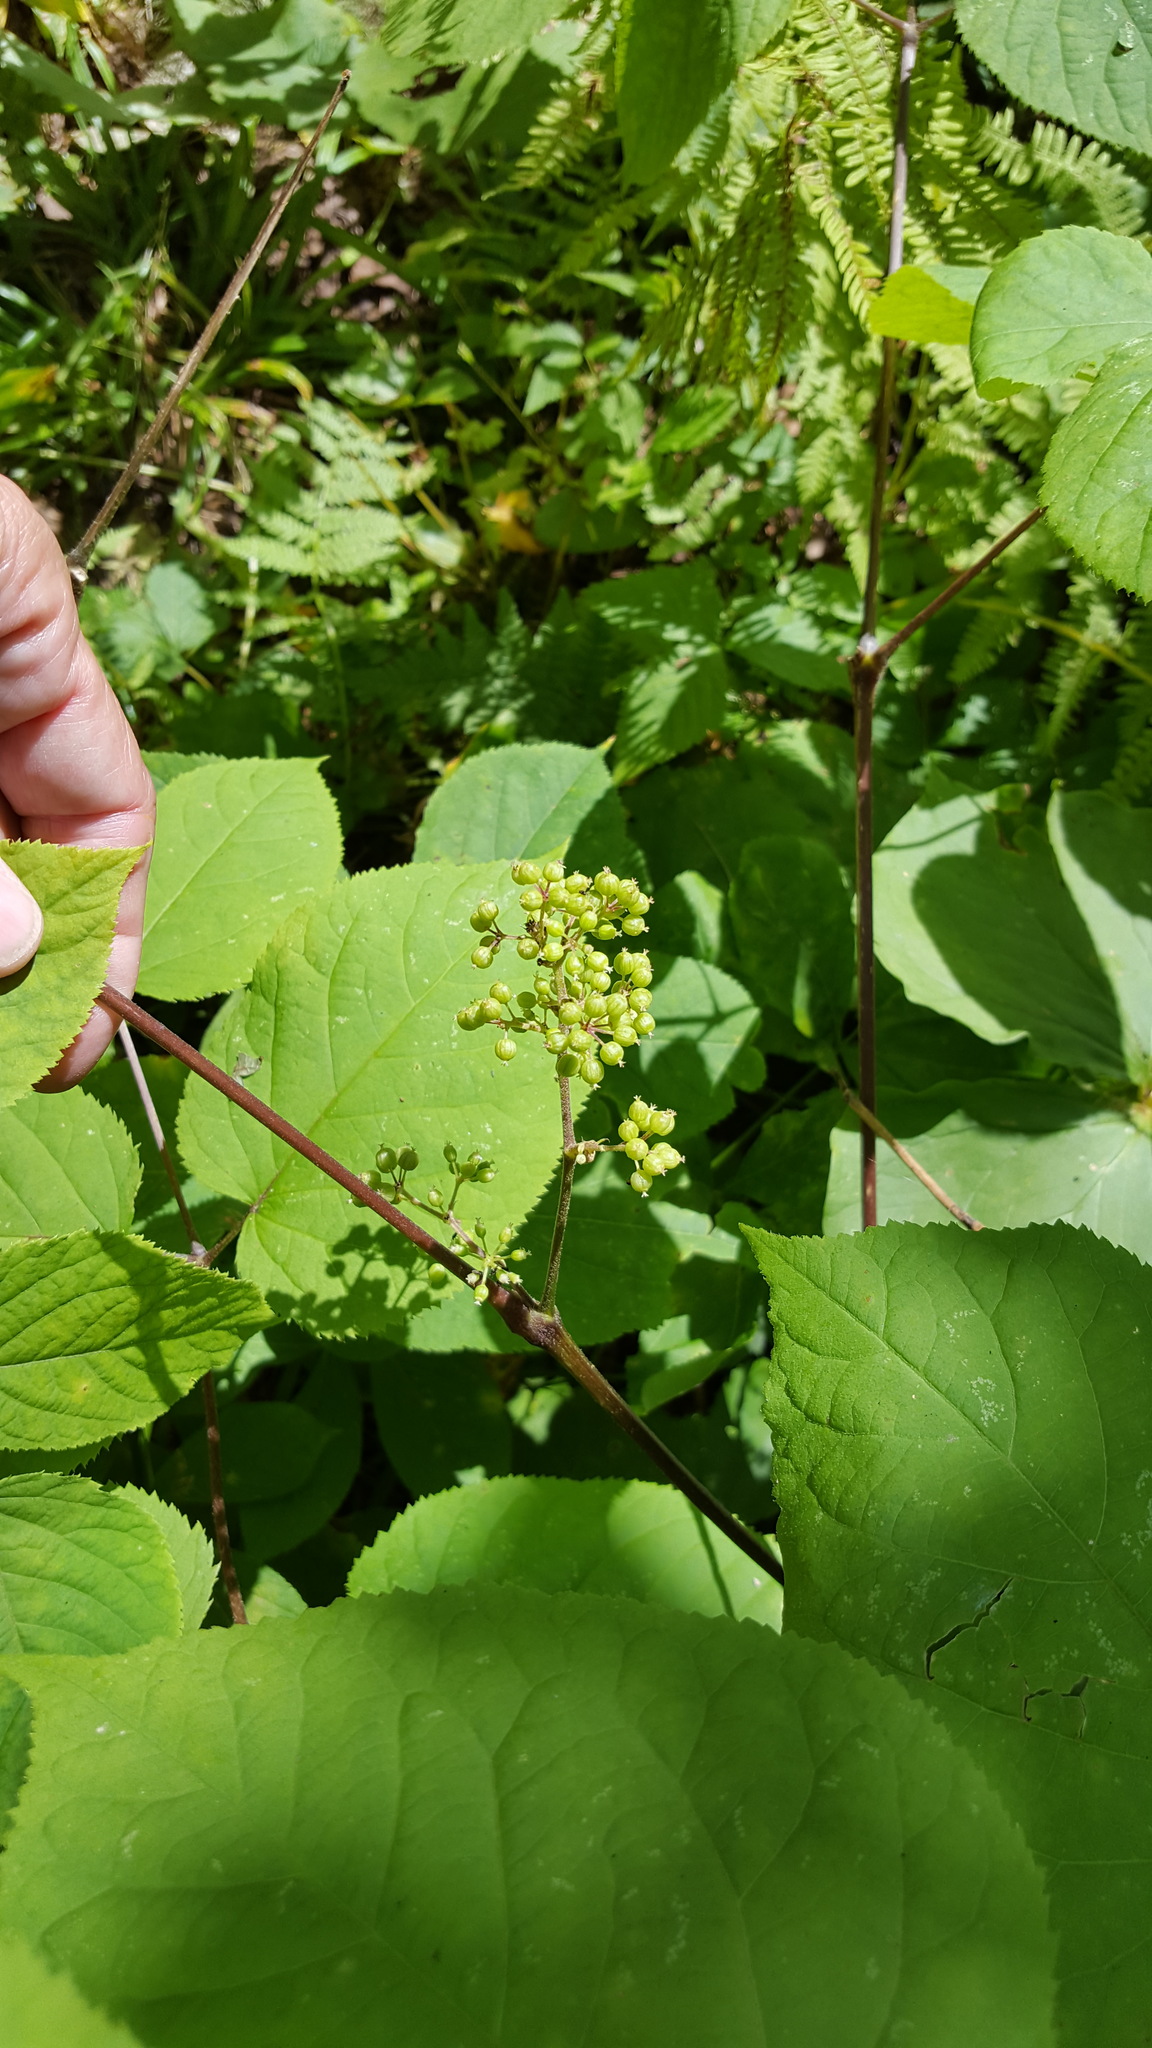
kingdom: Plantae
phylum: Tracheophyta
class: Magnoliopsida
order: Apiales
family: Araliaceae
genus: Aralia
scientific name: Aralia racemosa
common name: American-spikenard
